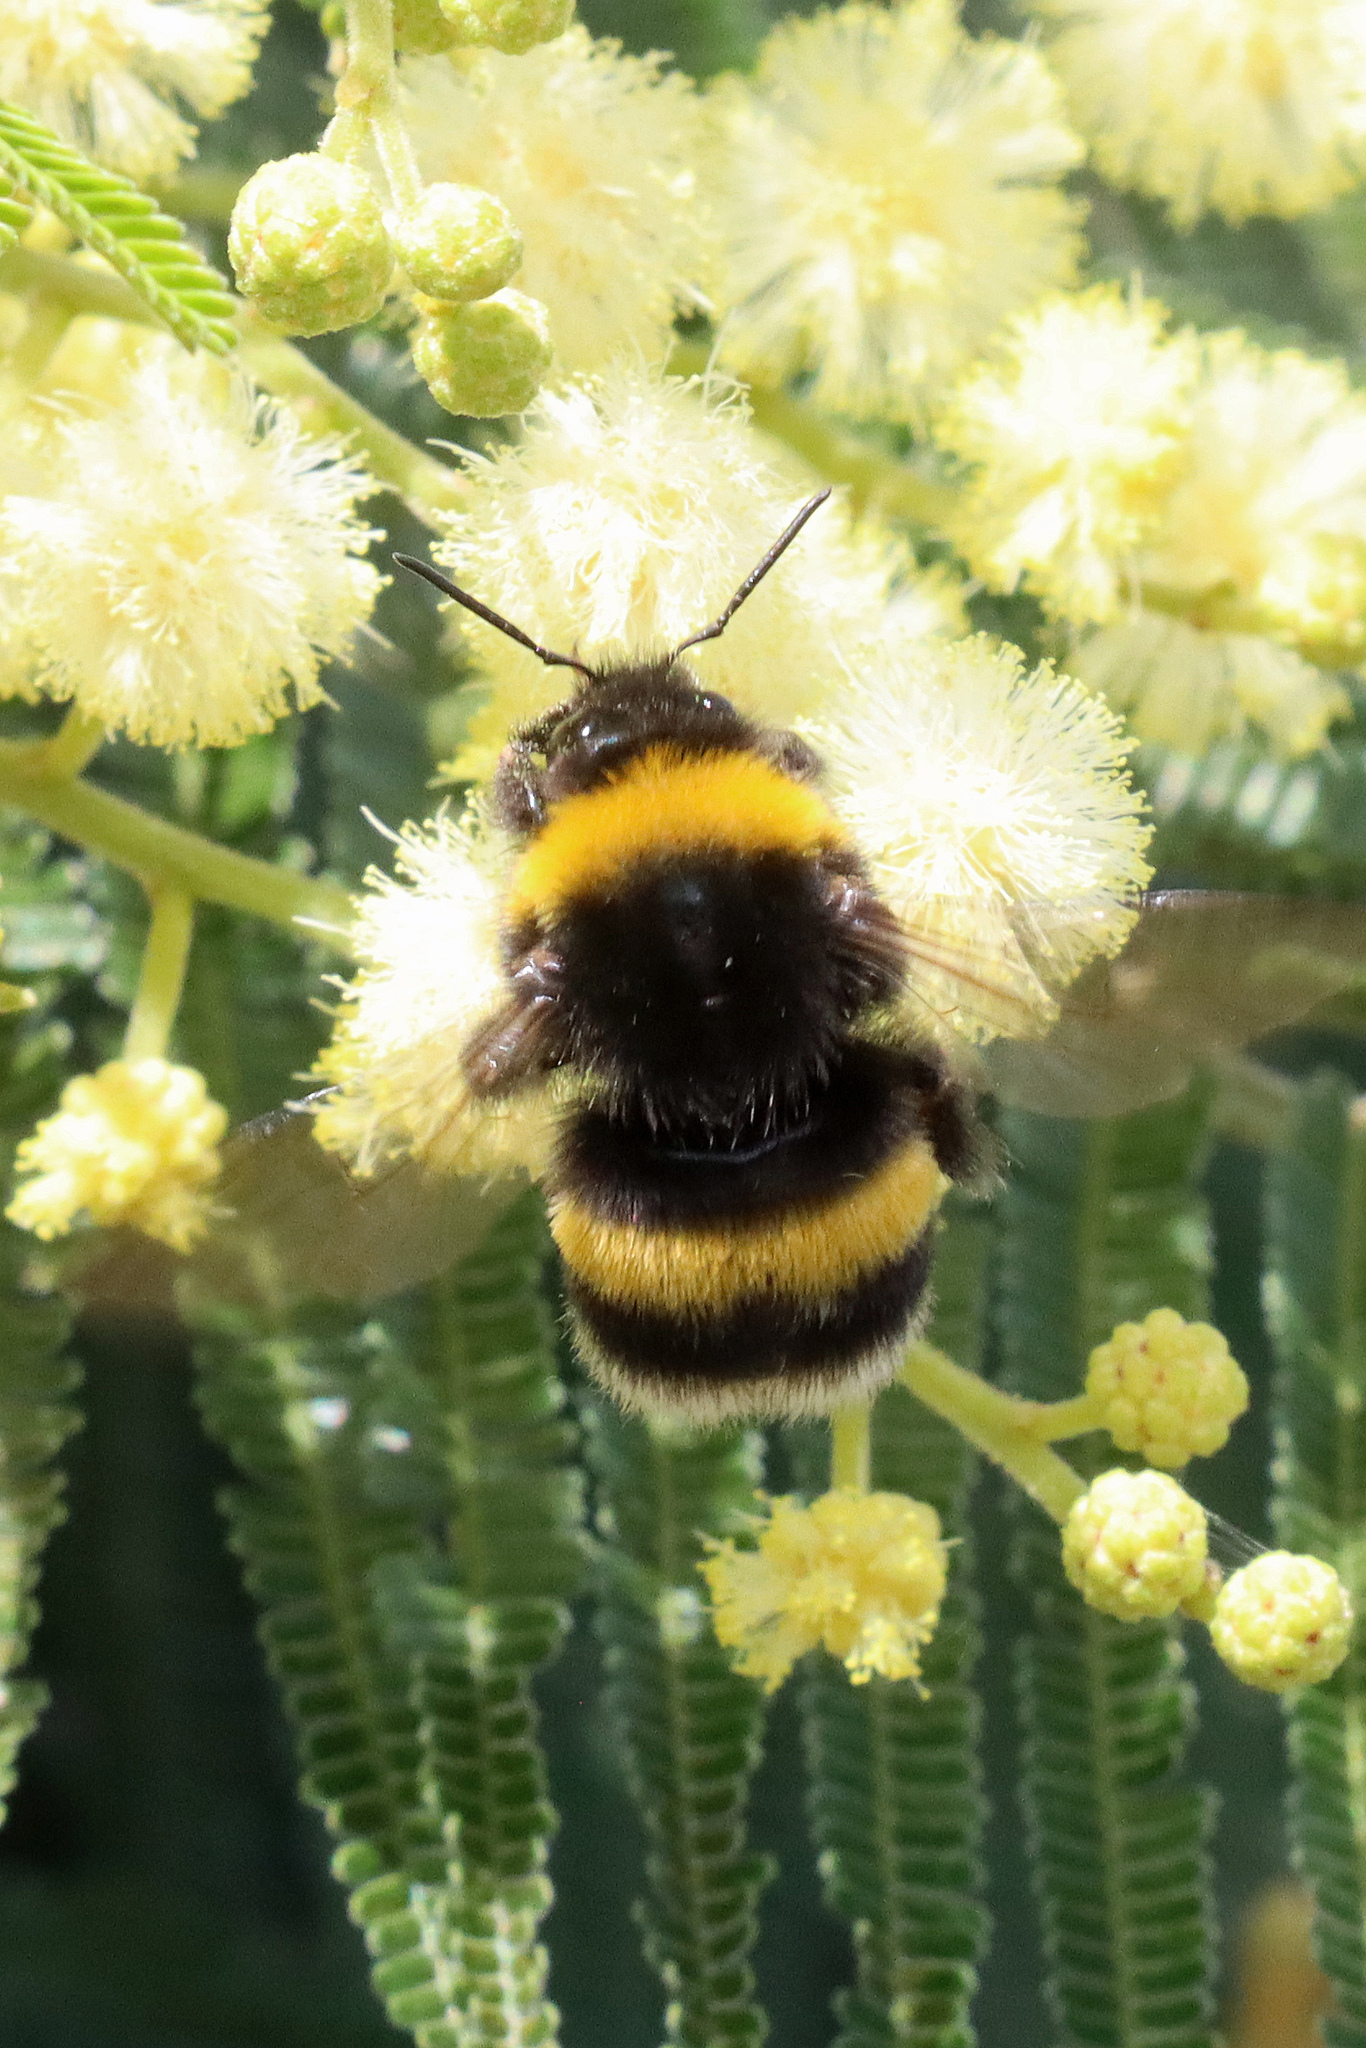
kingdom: Animalia
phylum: Arthropoda
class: Insecta
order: Hymenoptera
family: Apidae
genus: Bombus
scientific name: Bombus terrestris
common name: Buff-tailed bumblebee
